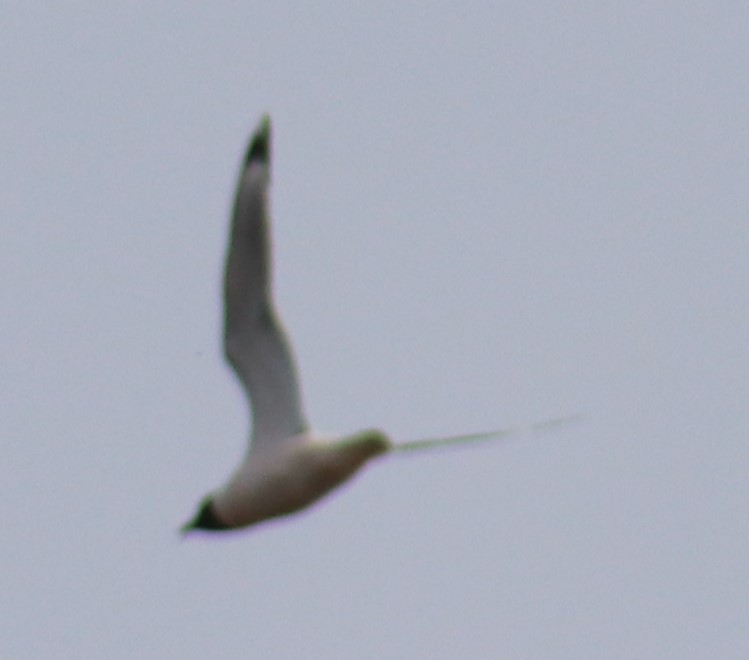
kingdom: Animalia
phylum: Chordata
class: Aves
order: Charadriiformes
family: Laridae
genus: Leucophaeus
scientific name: Leucophaeus pipixcan
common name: Franklin's gull
